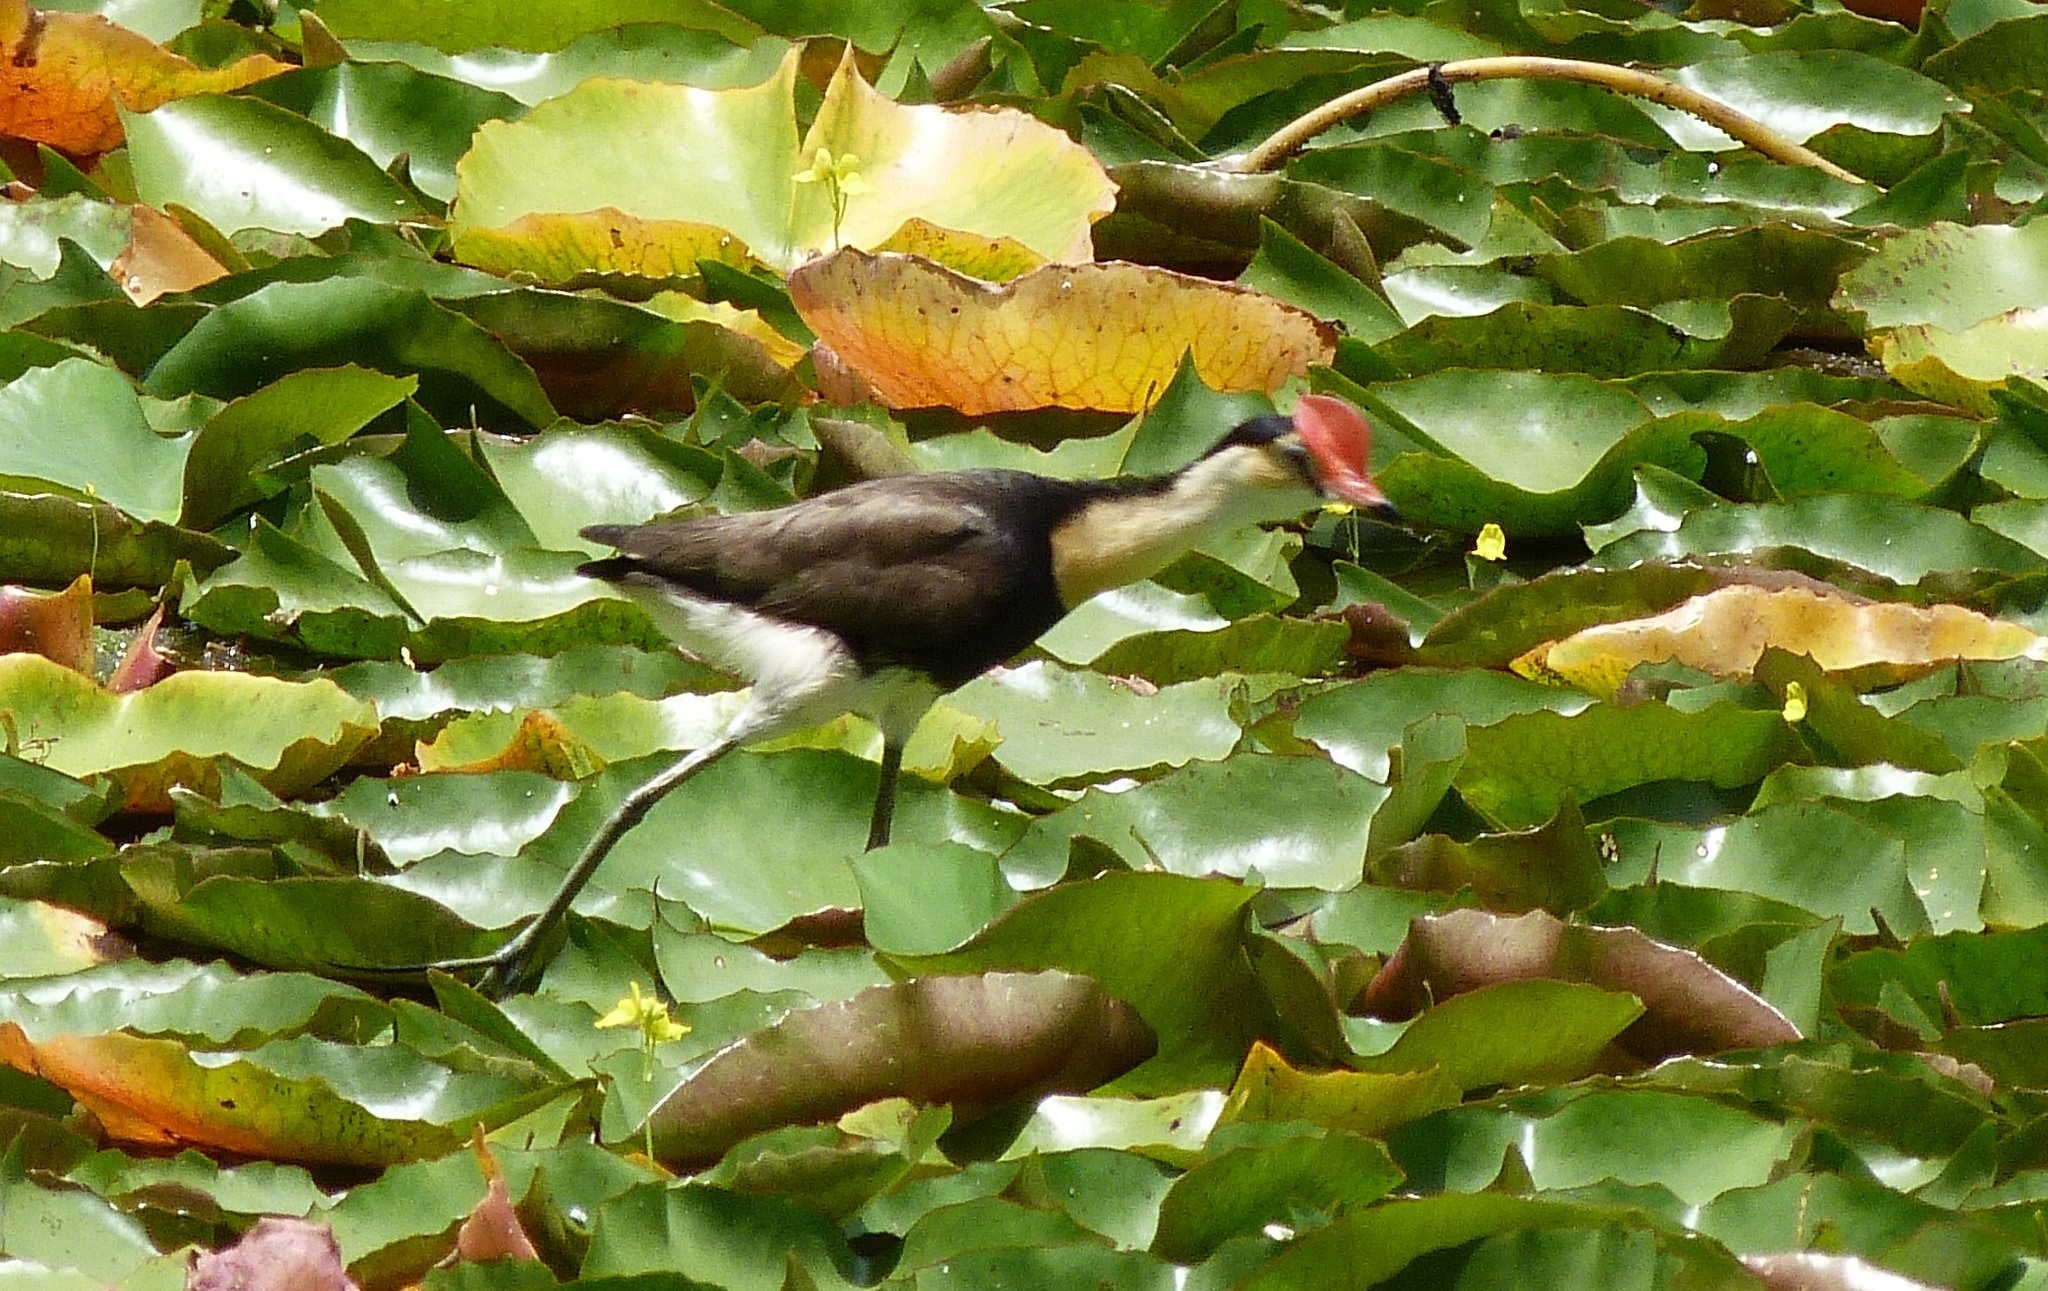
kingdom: Animalia
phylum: Chordata
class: Aves
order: Charadriiformes
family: Jacanidae
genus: Irediparra
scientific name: Irediparra gallinacea
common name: Comb-crested jacana
